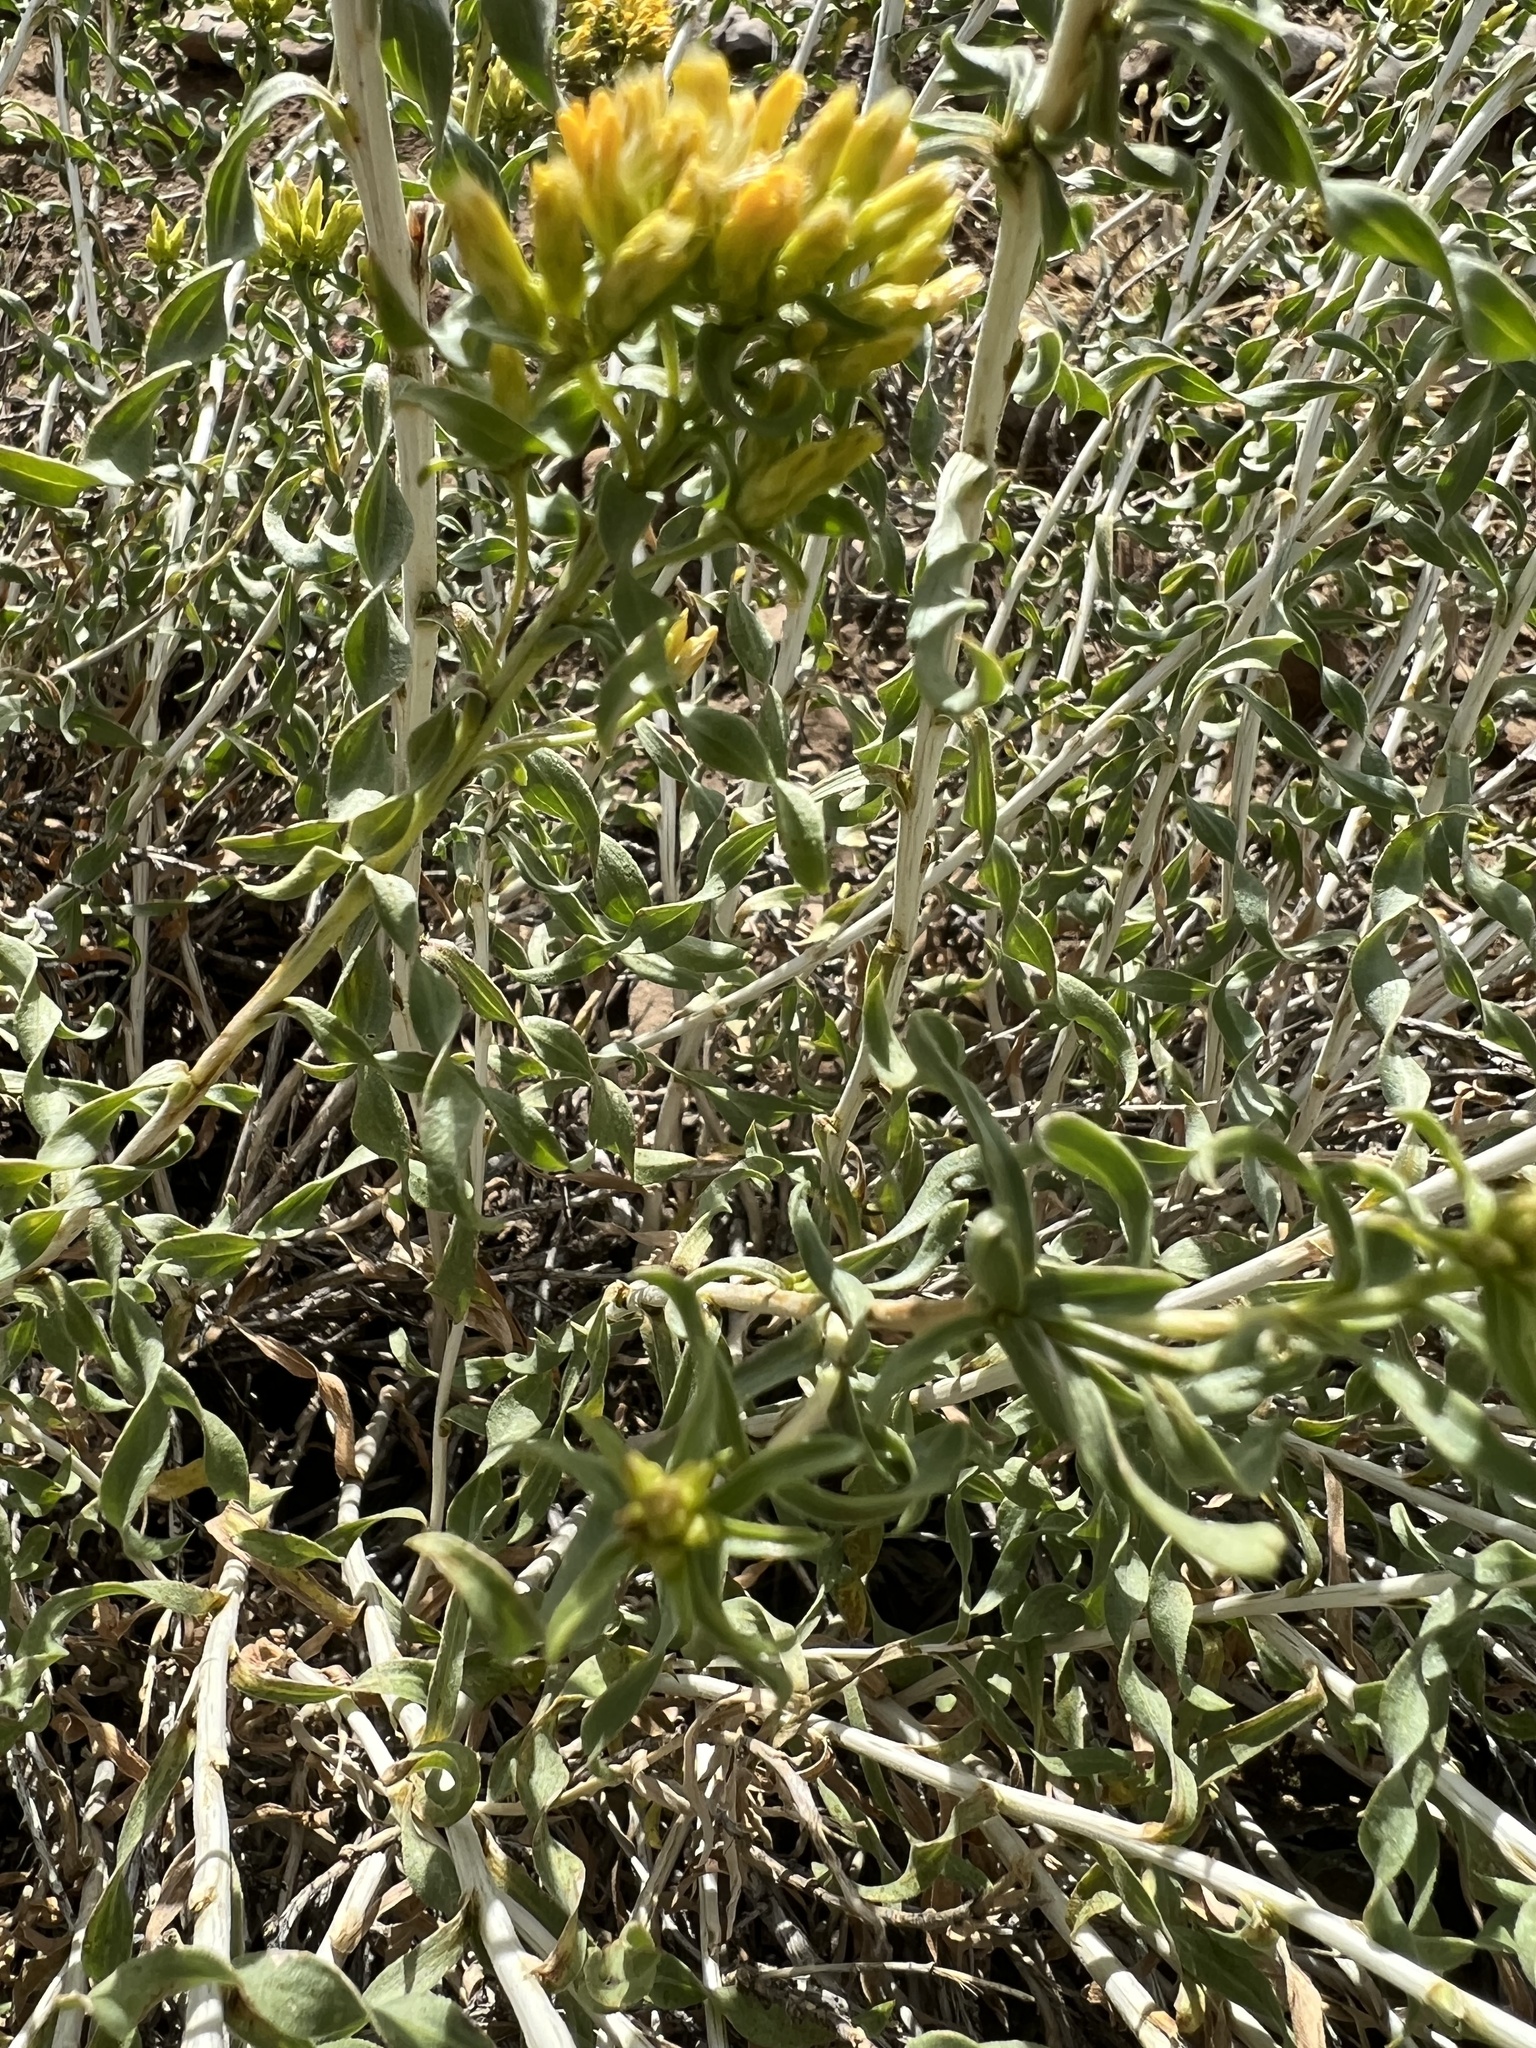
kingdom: Plantae
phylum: Tracheophyta
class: Magnoliopsida
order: Asterales
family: Asteraceae
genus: Chrysothamnus
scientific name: Chrysothamnus viscidiflorus
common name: Yellow rabbitbrush
